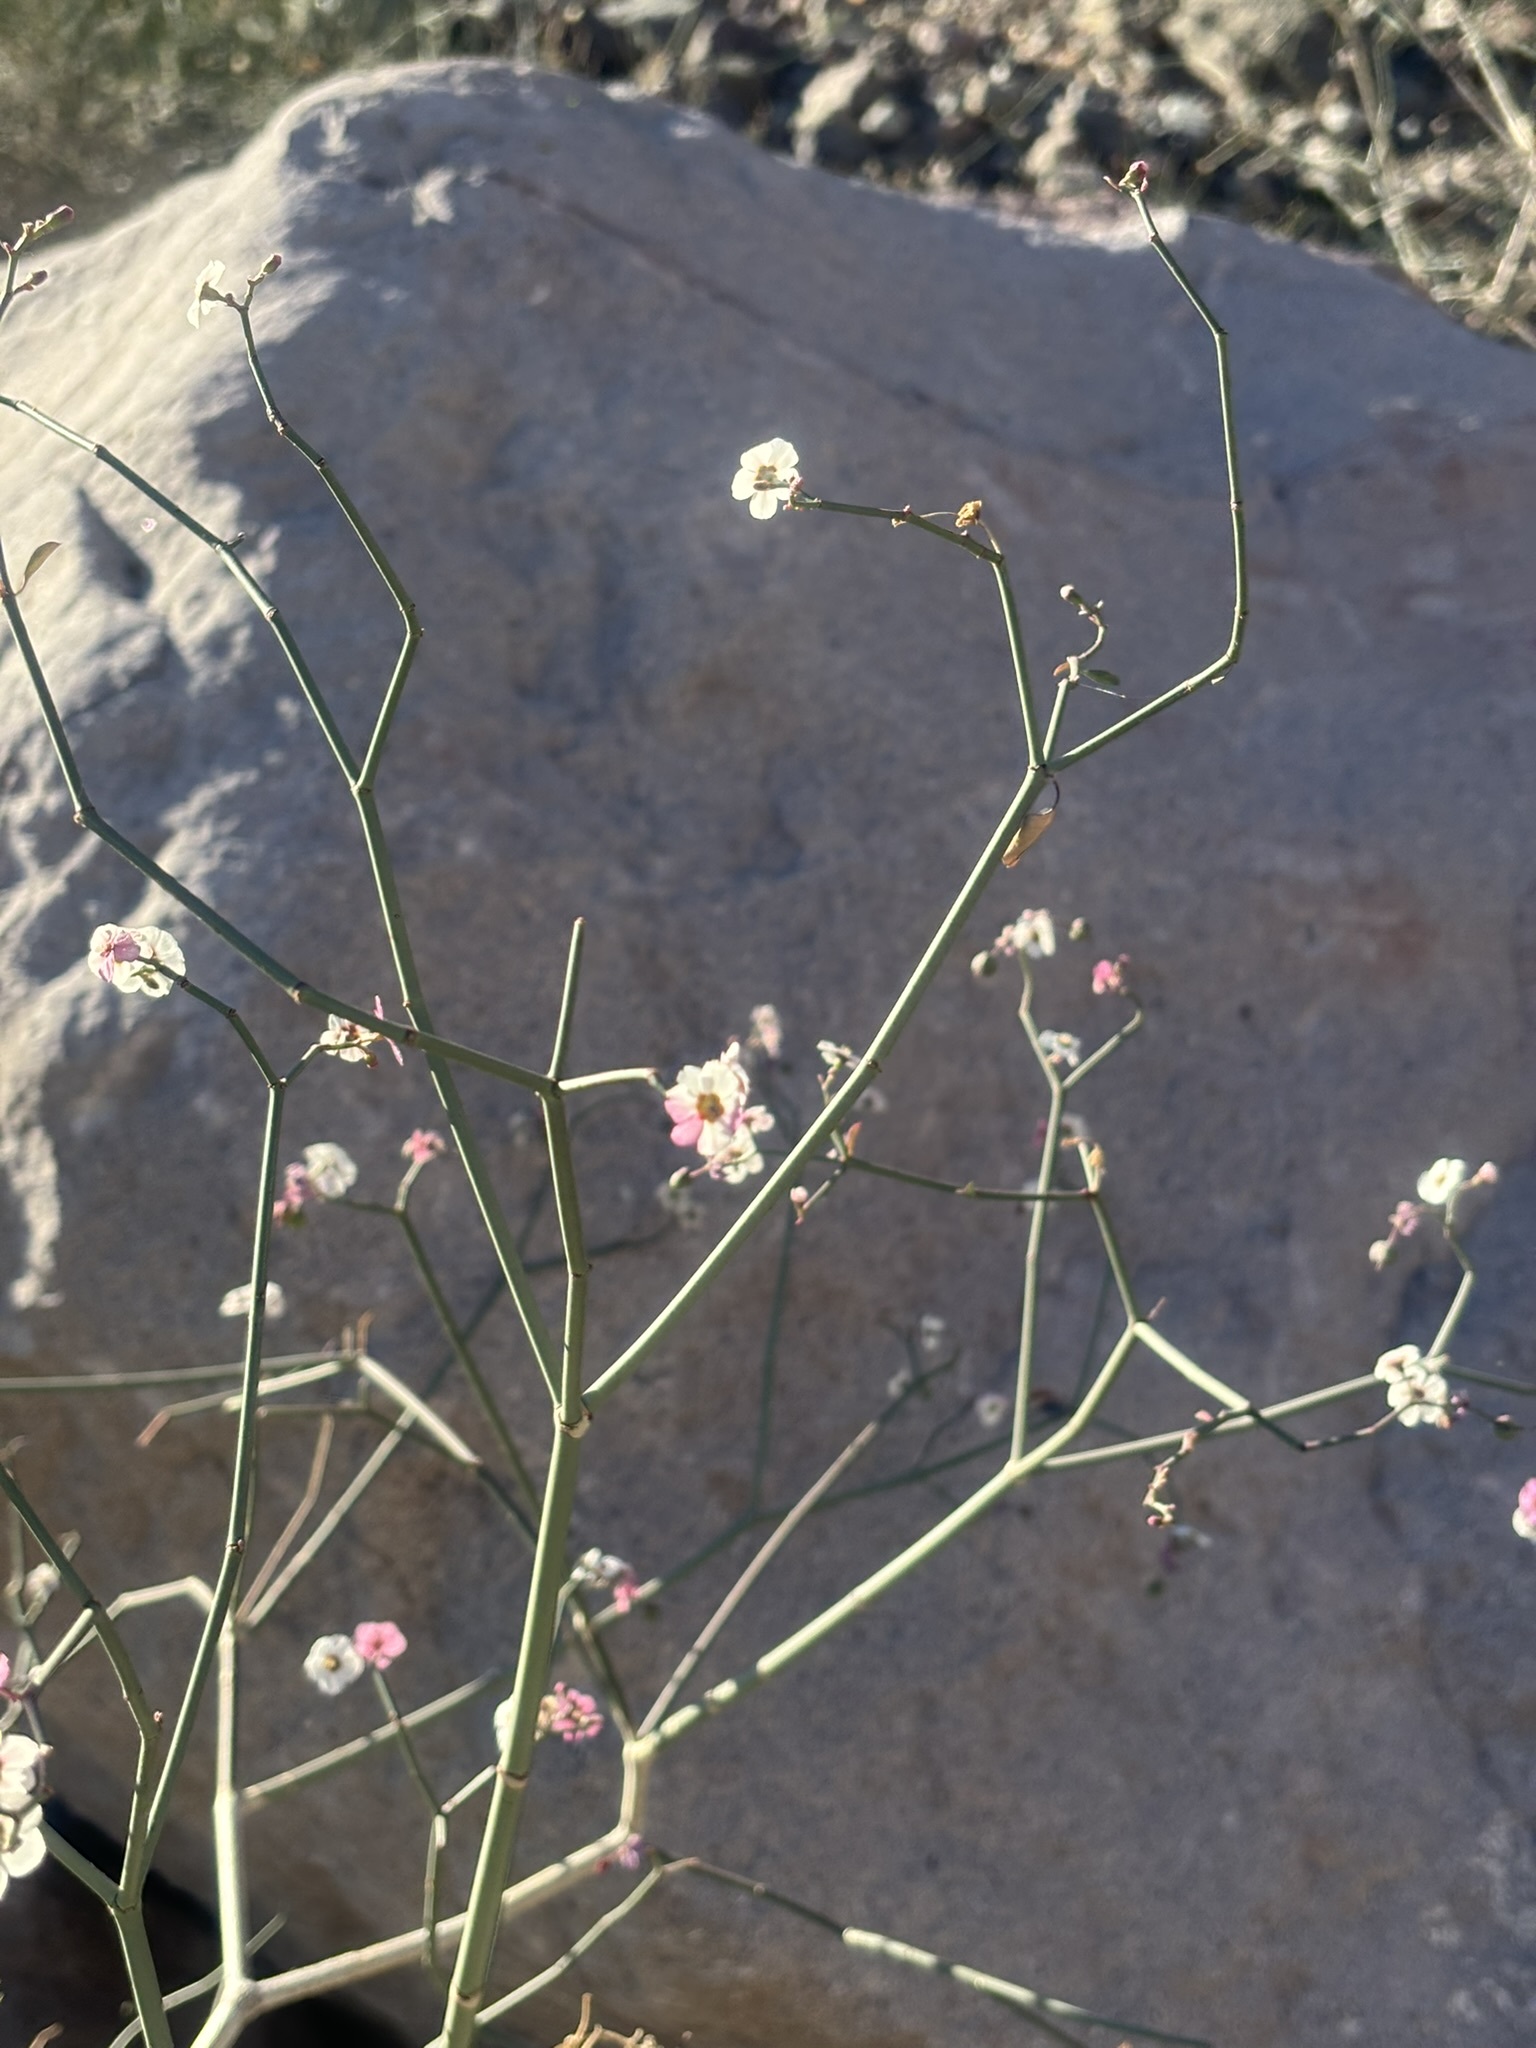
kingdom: Plantae
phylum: Tracheophyta
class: Magnoliopsida
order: Malpighiales
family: Euphorbiaceae
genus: Euphorbia
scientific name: Euphorbia xanti
